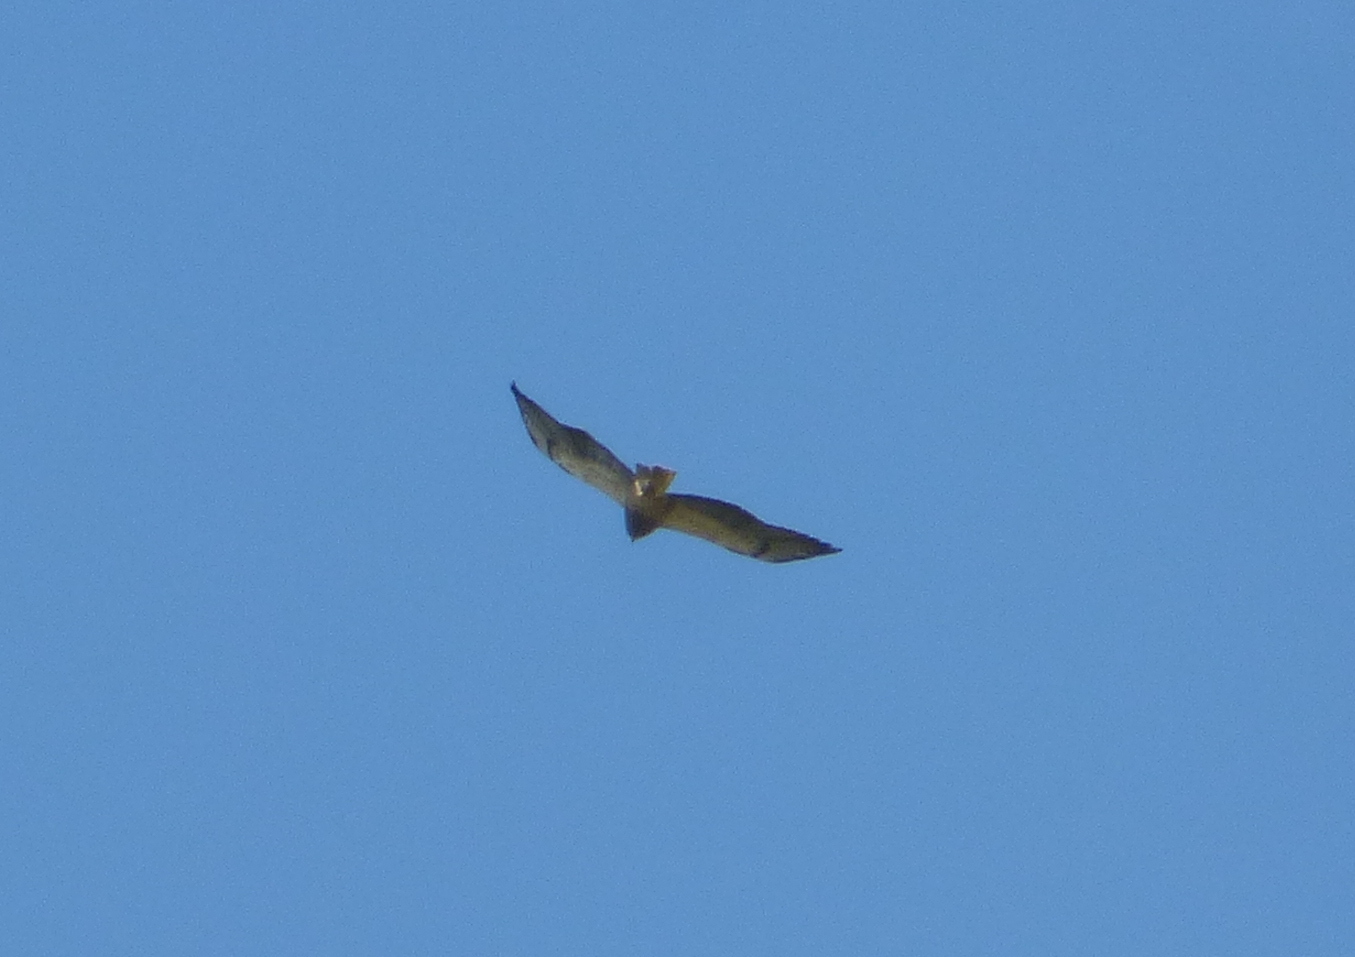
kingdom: Animalia
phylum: Chordata
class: Aves
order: Accipitriformes
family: Accipitridae
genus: Buteo
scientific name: Buteo swainsoni
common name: Swainson's hawk
